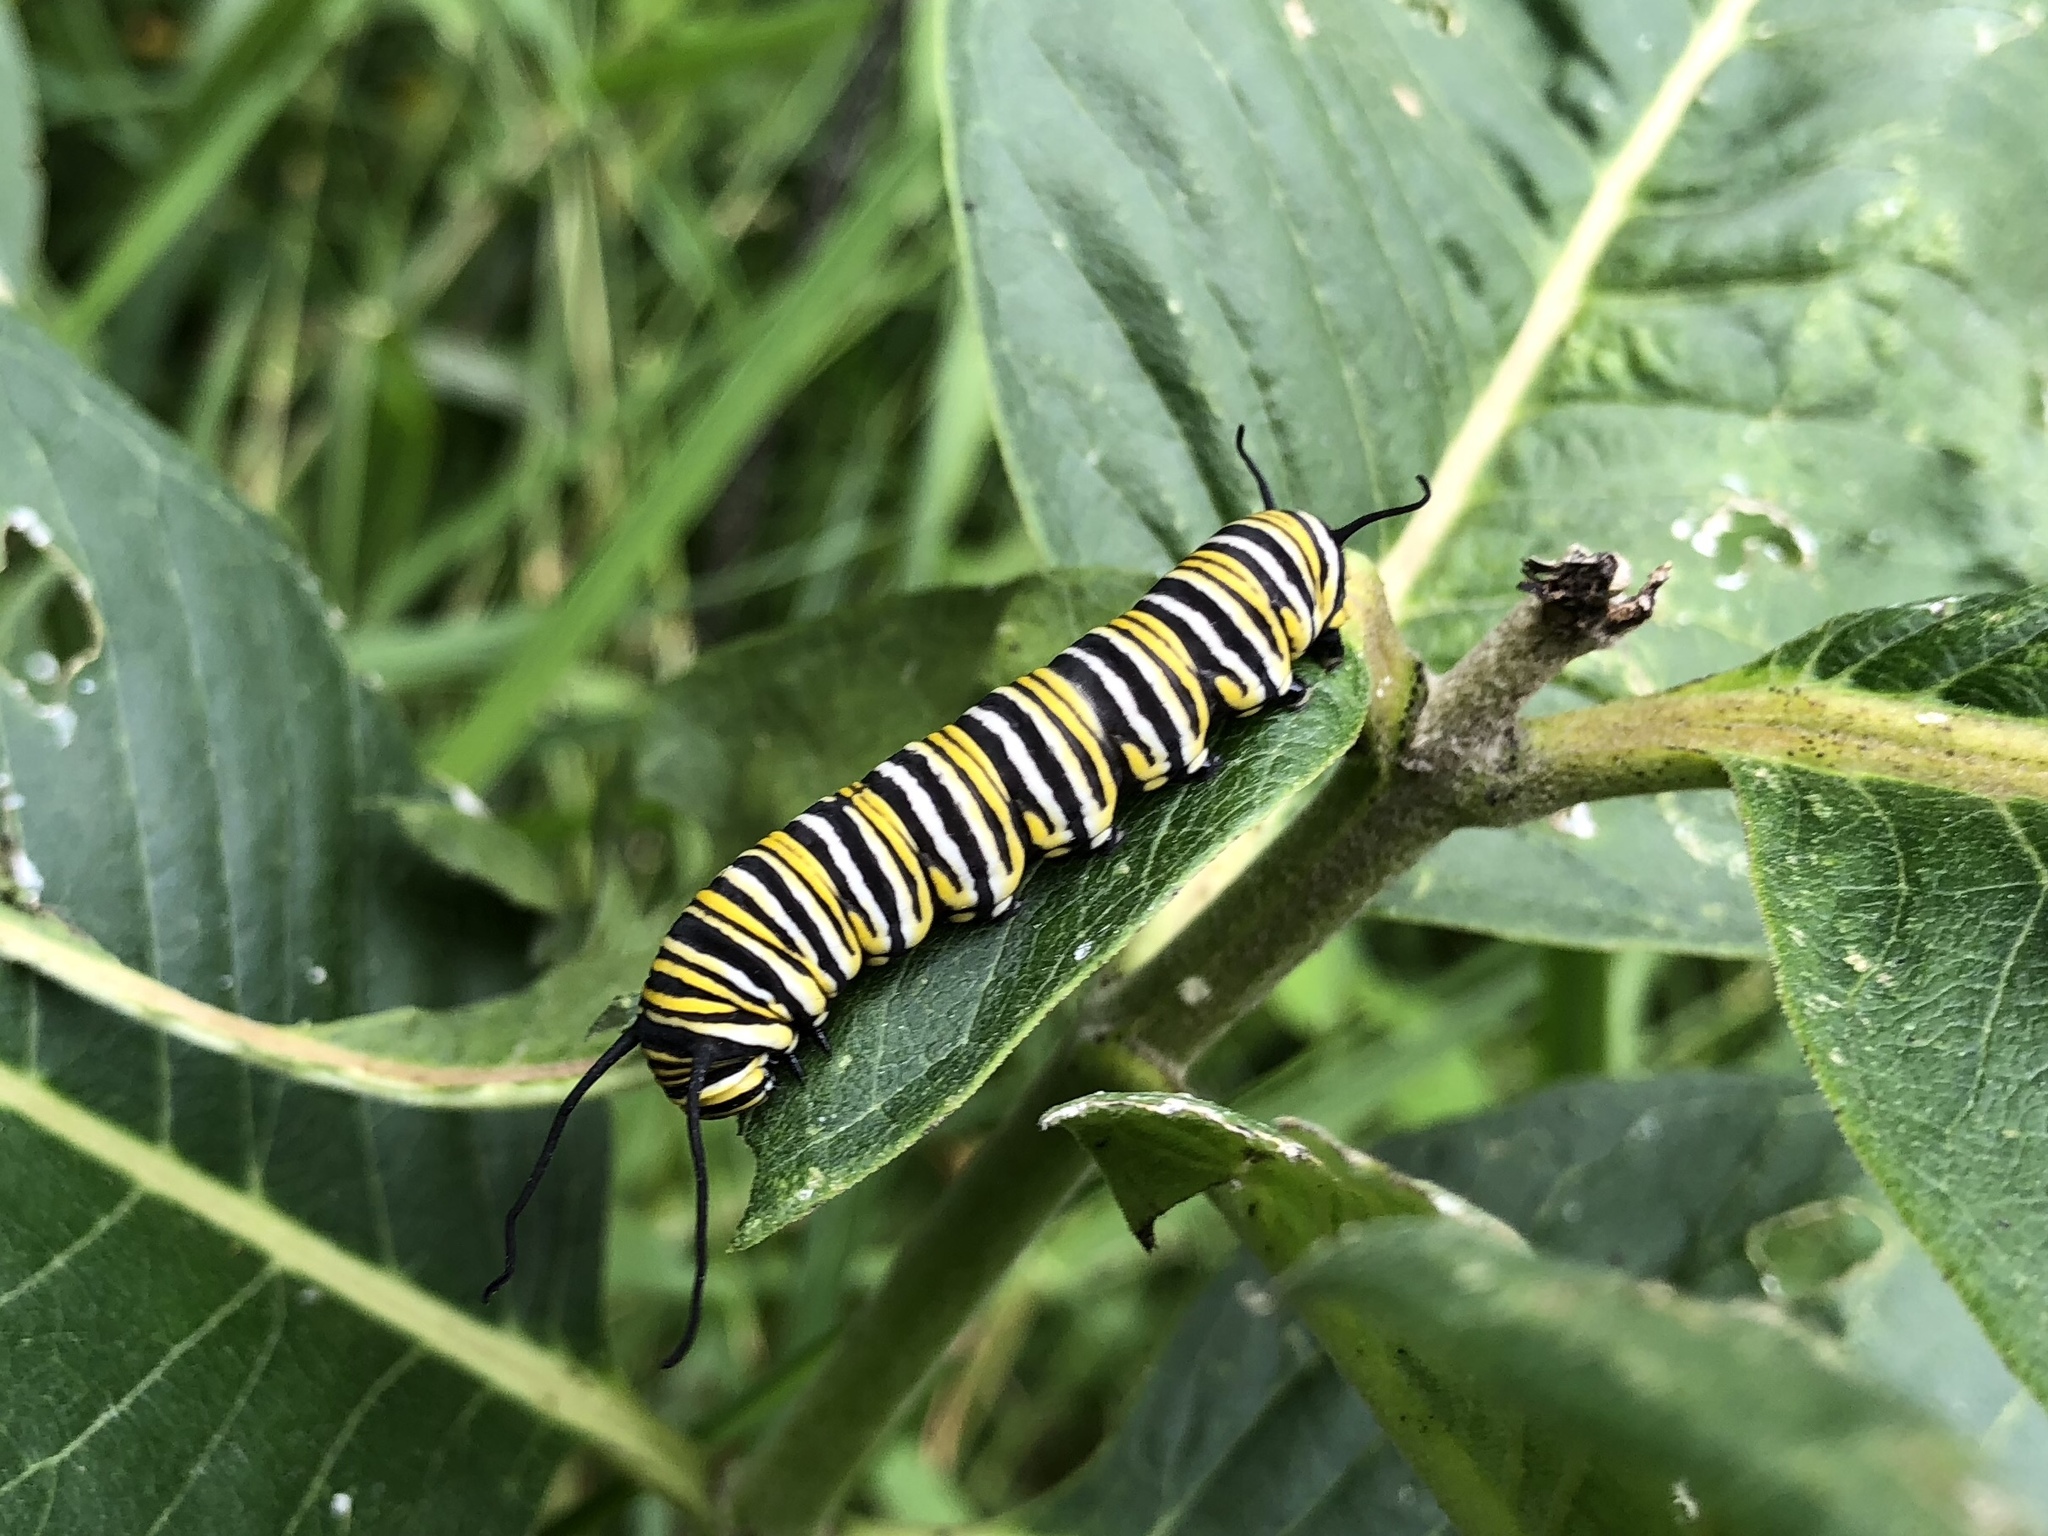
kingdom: Animalia
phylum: Arthropoda
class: Insecta
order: Lepidoptera
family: Nymphalidae
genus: Danaus
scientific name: Danaus plexippus
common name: Monarch
